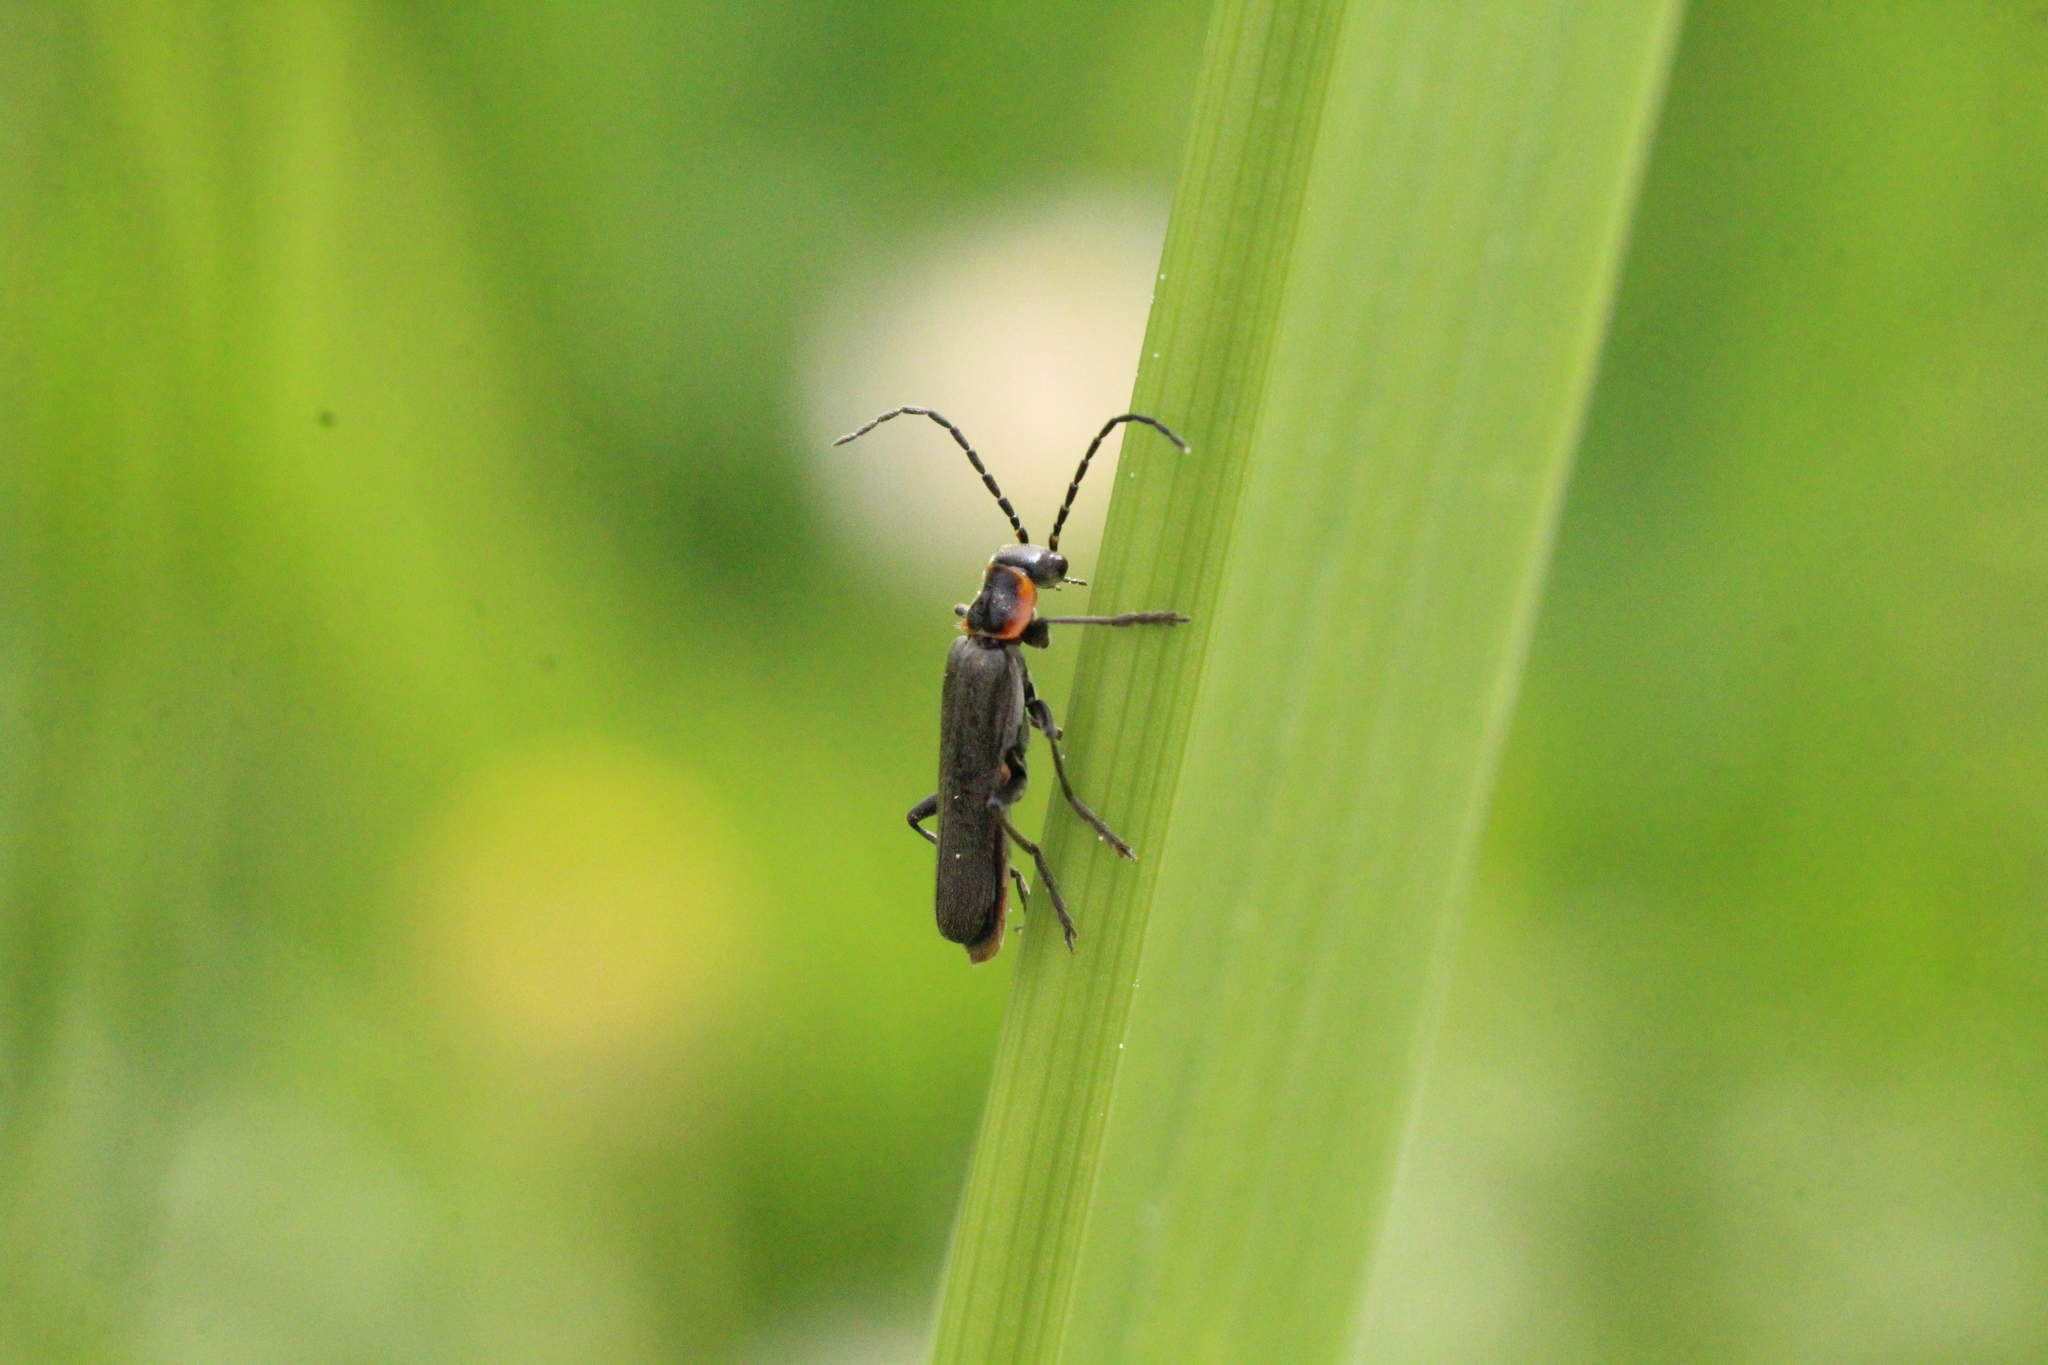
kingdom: Animalia
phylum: Arthropoda
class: Insecta
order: Coleoptera
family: Cantharidae
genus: Cantharis
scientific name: Cantharis pulicaria
